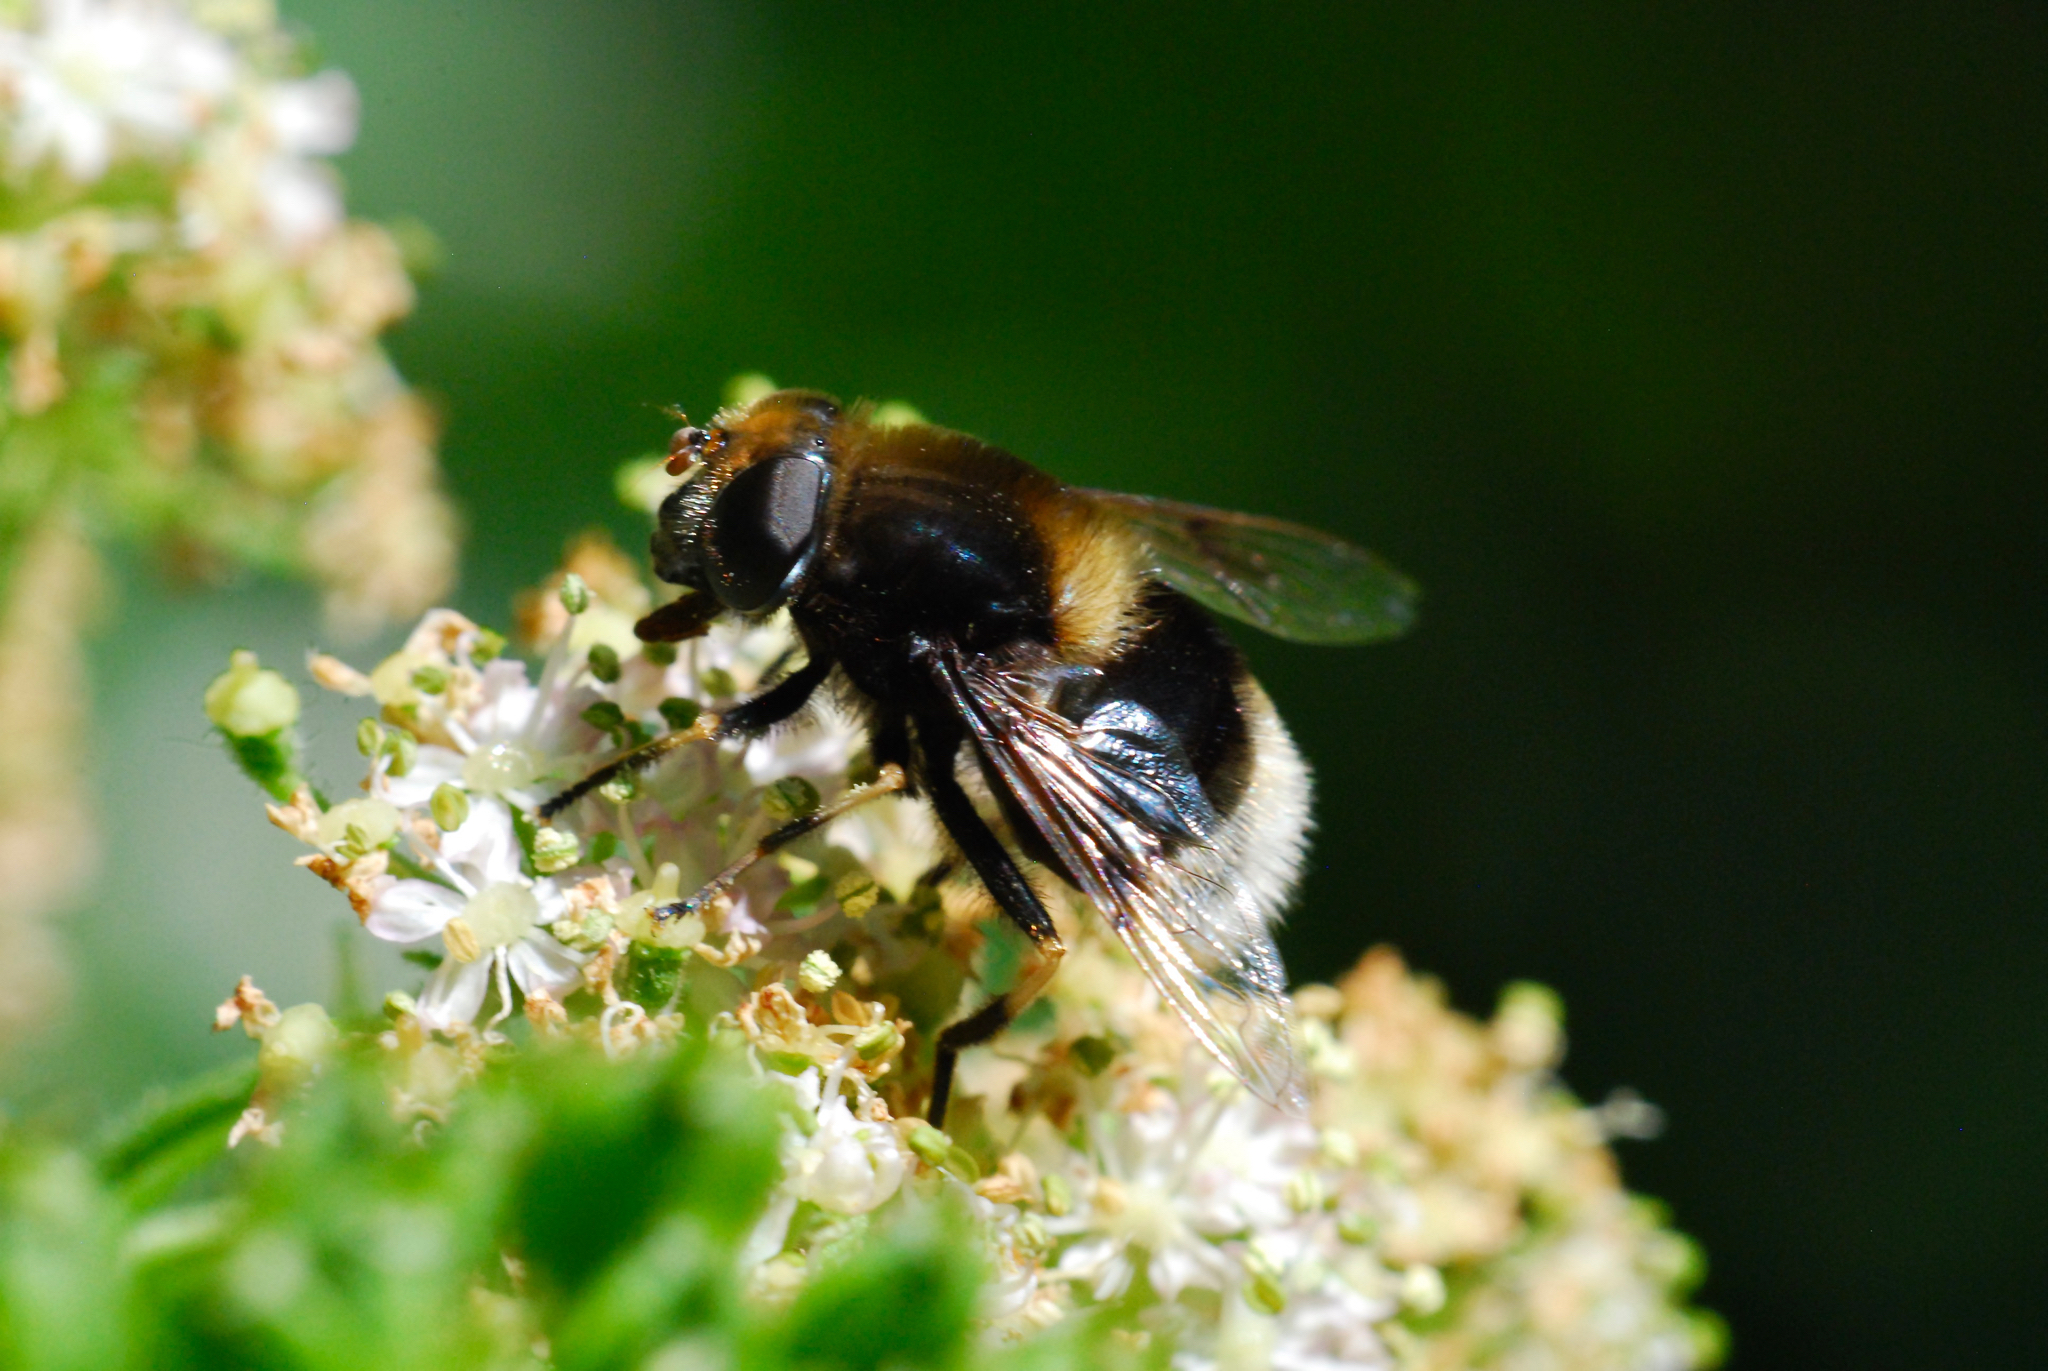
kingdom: Animalia
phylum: Arthropoda
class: Insecta
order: Diptera
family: Syrphidae
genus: Eristalis
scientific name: Eristalis intricaria
